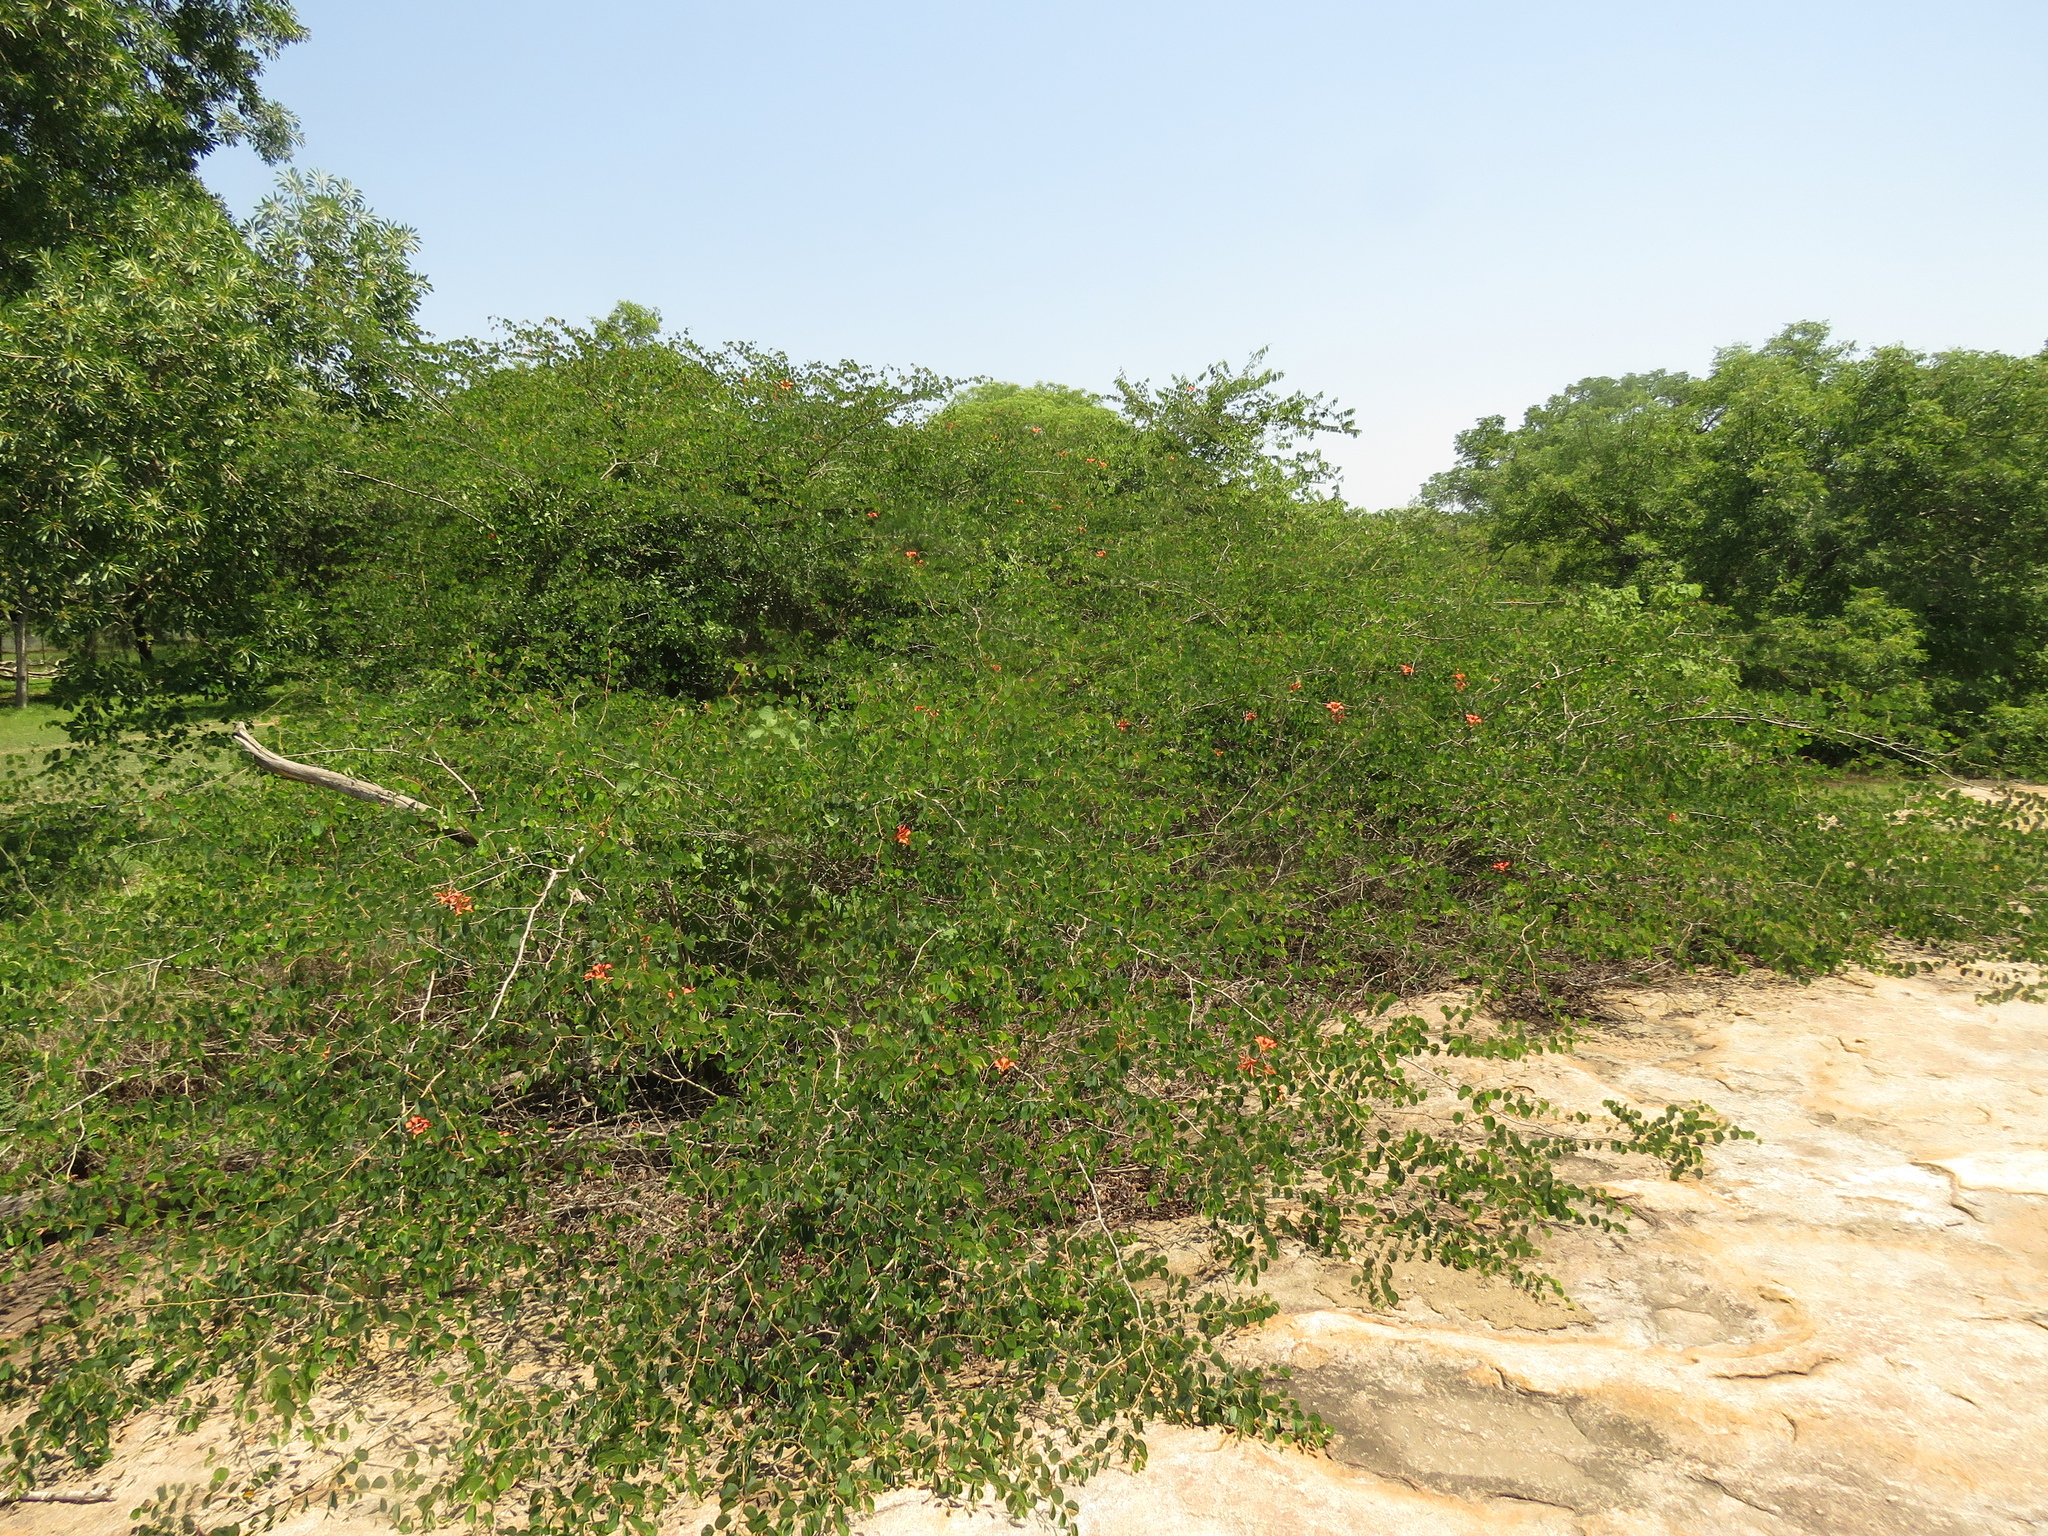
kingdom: Plantae
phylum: Tracheophyta
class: Magnoliopsida
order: Fabales
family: Fabaceae
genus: Bauhinia
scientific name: Bauhinia galpinii
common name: African plume
